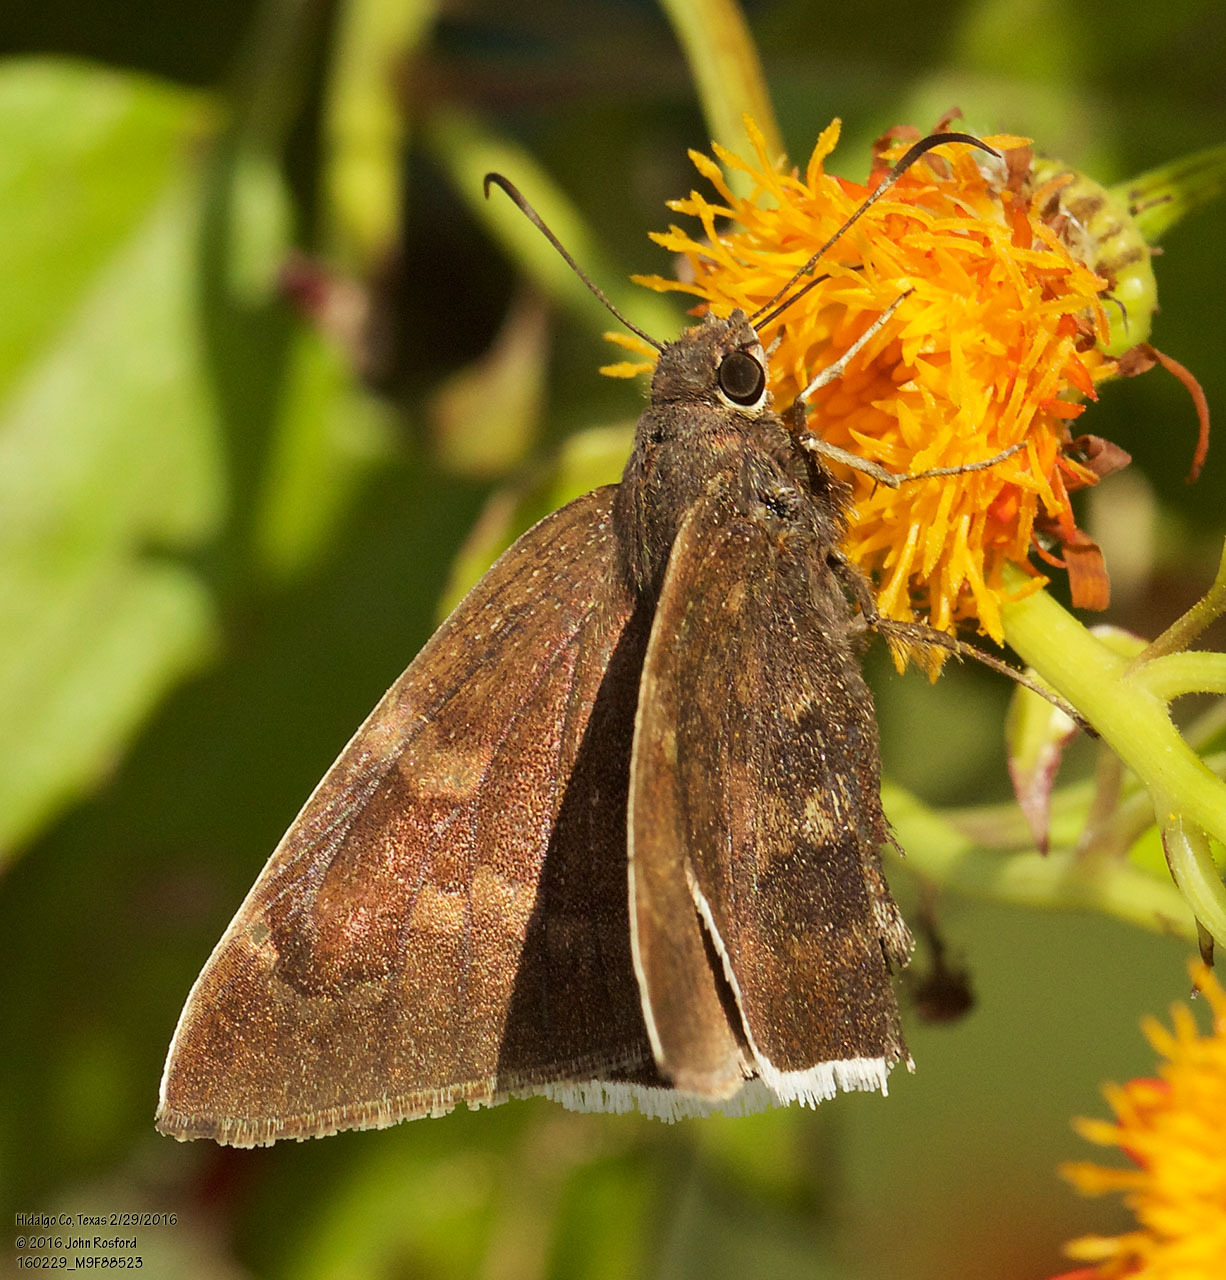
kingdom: Animalia
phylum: Arthropoda
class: Insecta
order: Lepidoptera
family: Hesperiidae
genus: Achalarus
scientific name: Achalarus Murgaria albociliatus
